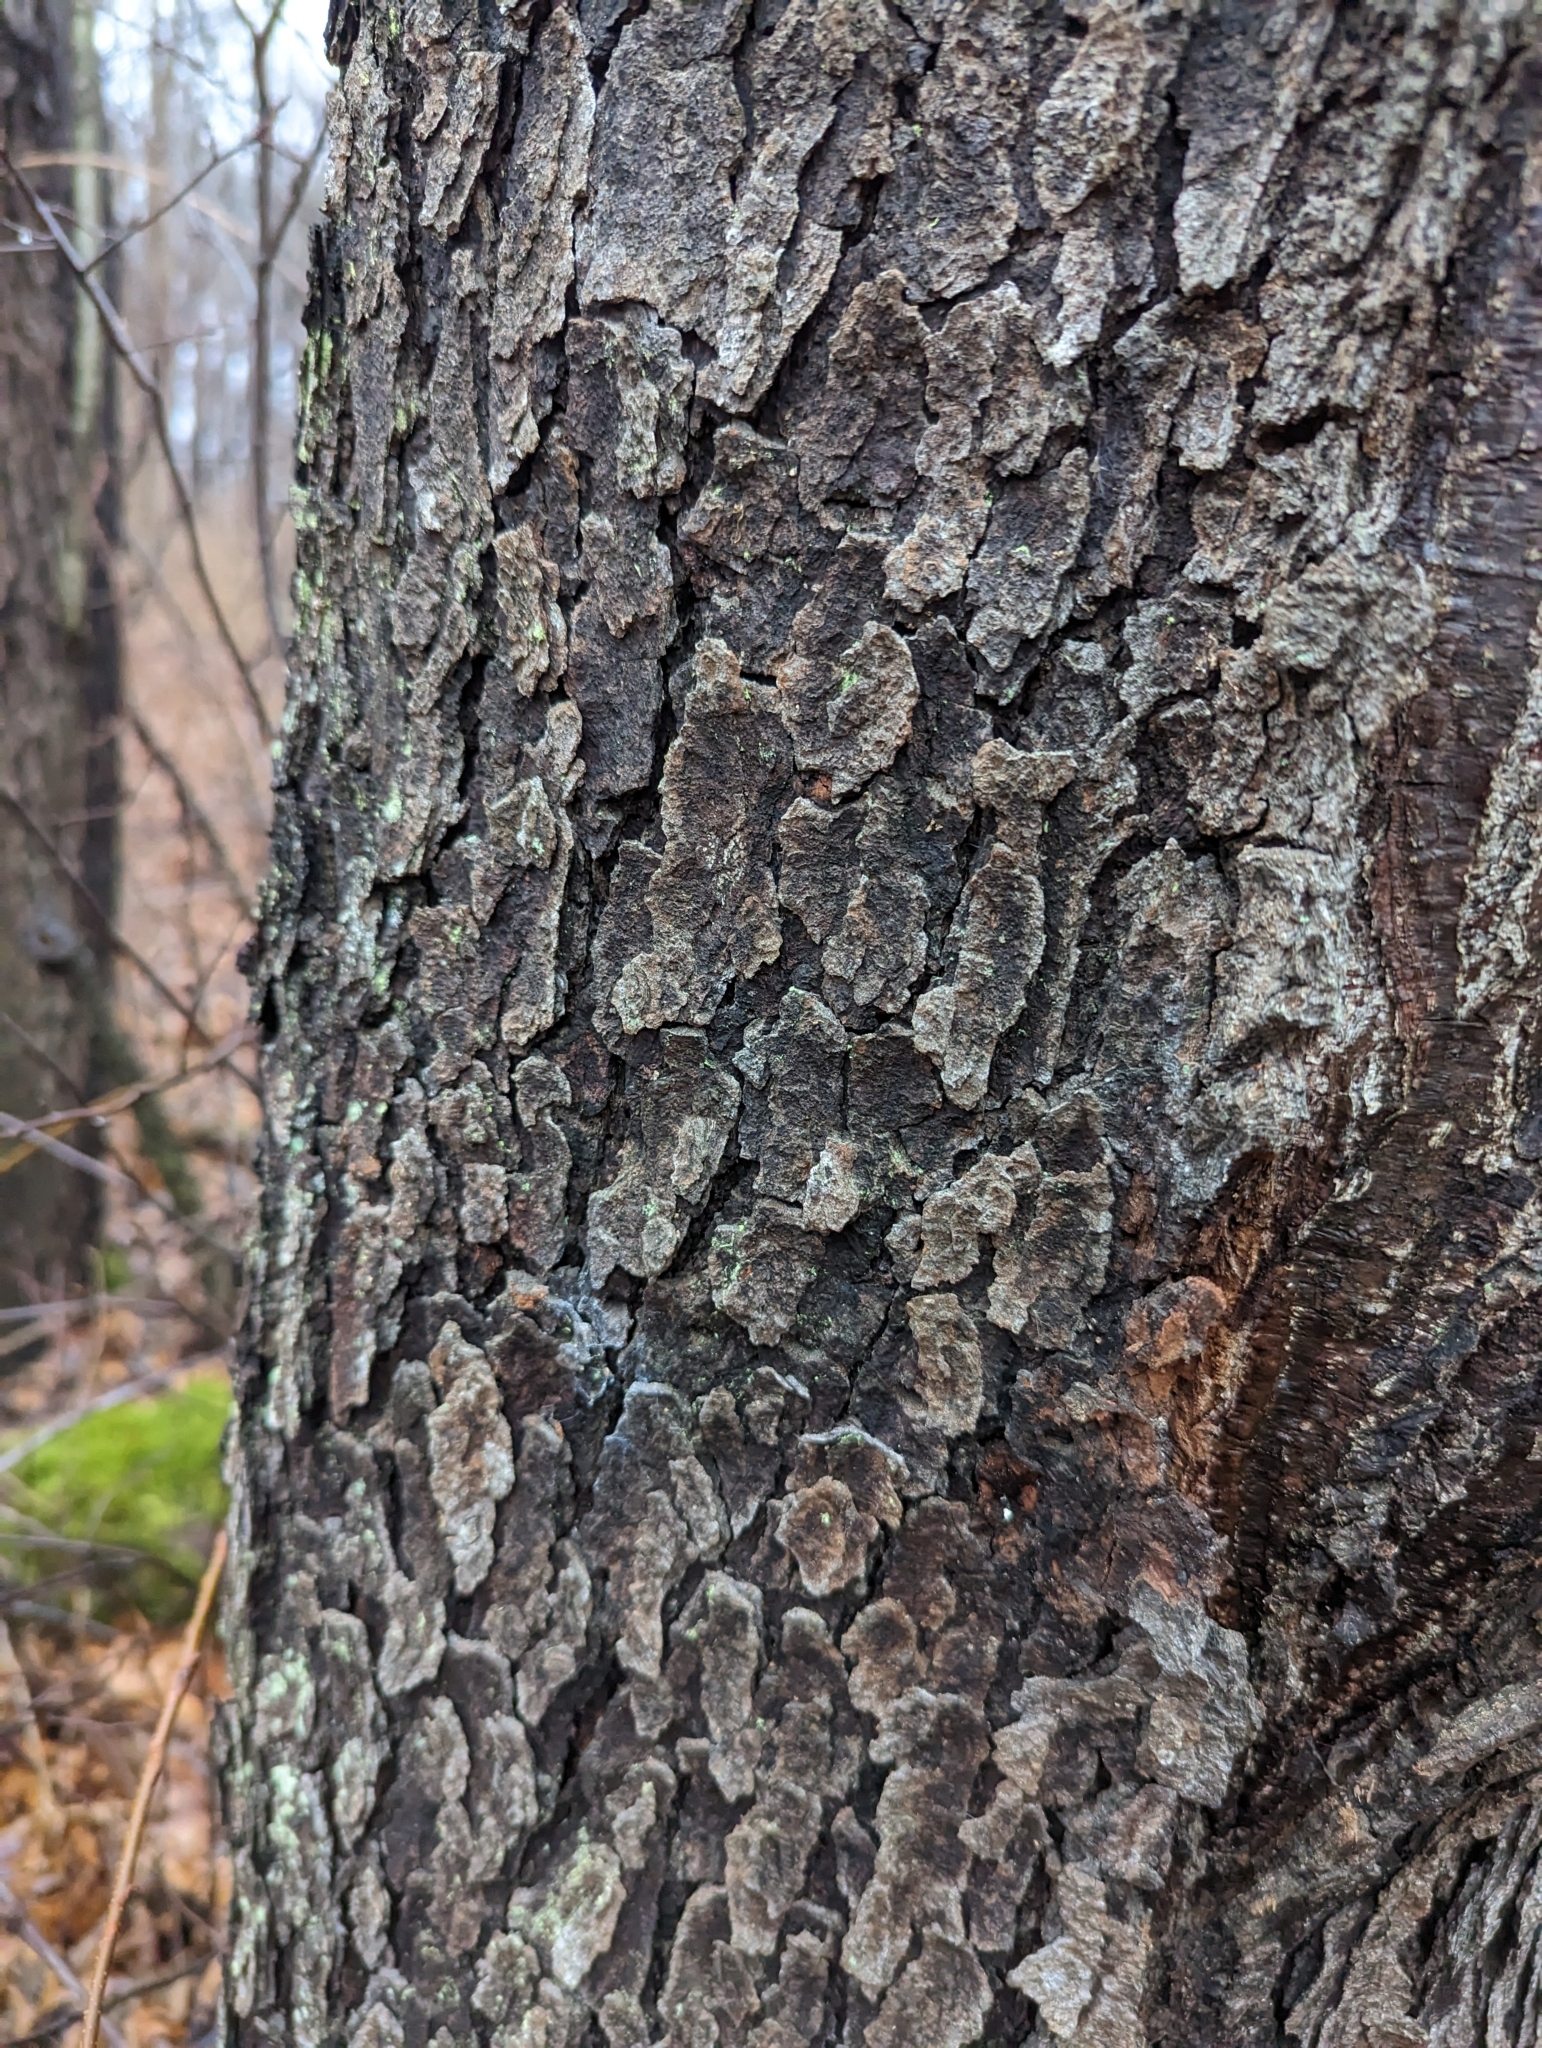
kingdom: Plantae
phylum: Tracheophyta
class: Magnoliopsida
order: Rosales
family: Rosaceae
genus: Prunus
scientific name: Prunus serotina
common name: Black cherry
